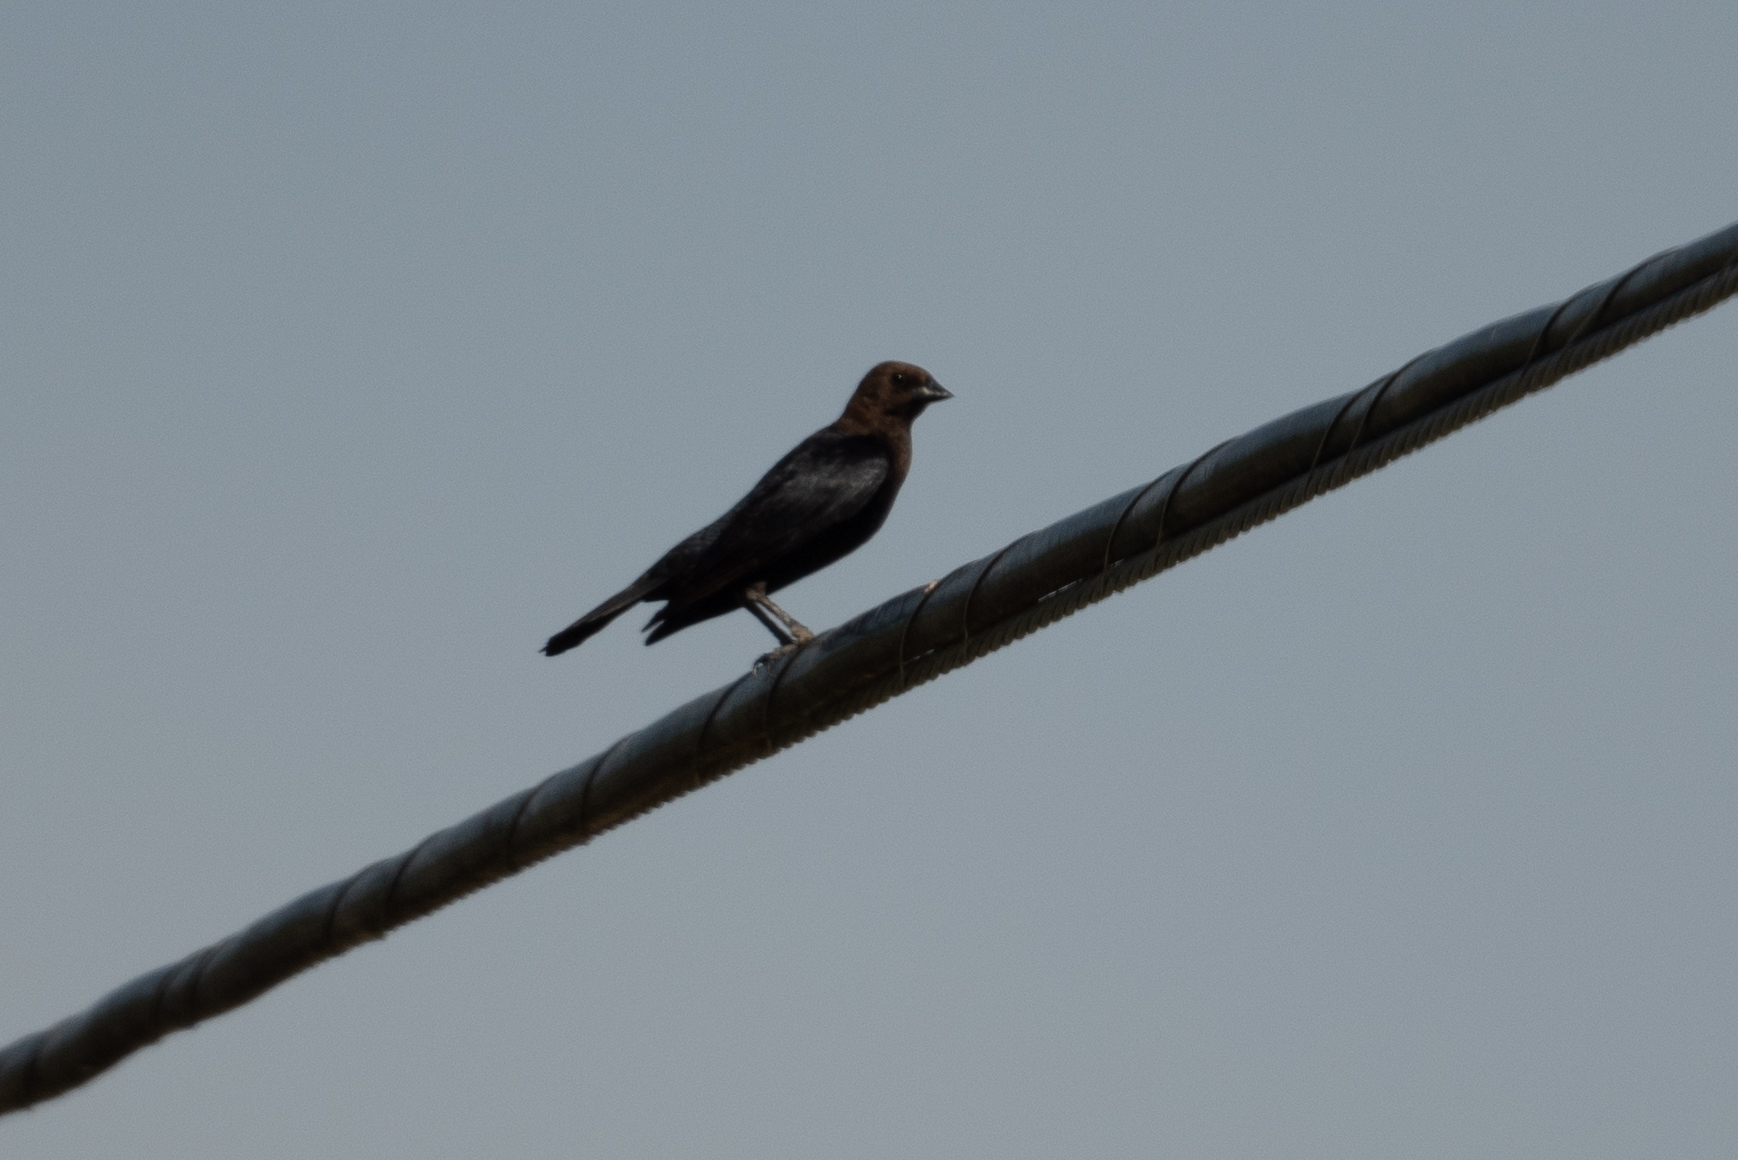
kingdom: Animalia
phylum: Chordata
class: Aves
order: Passeriformes
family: Icteridae
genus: Molothrus
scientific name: Molothrus ater
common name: Brown-headed cowbird
